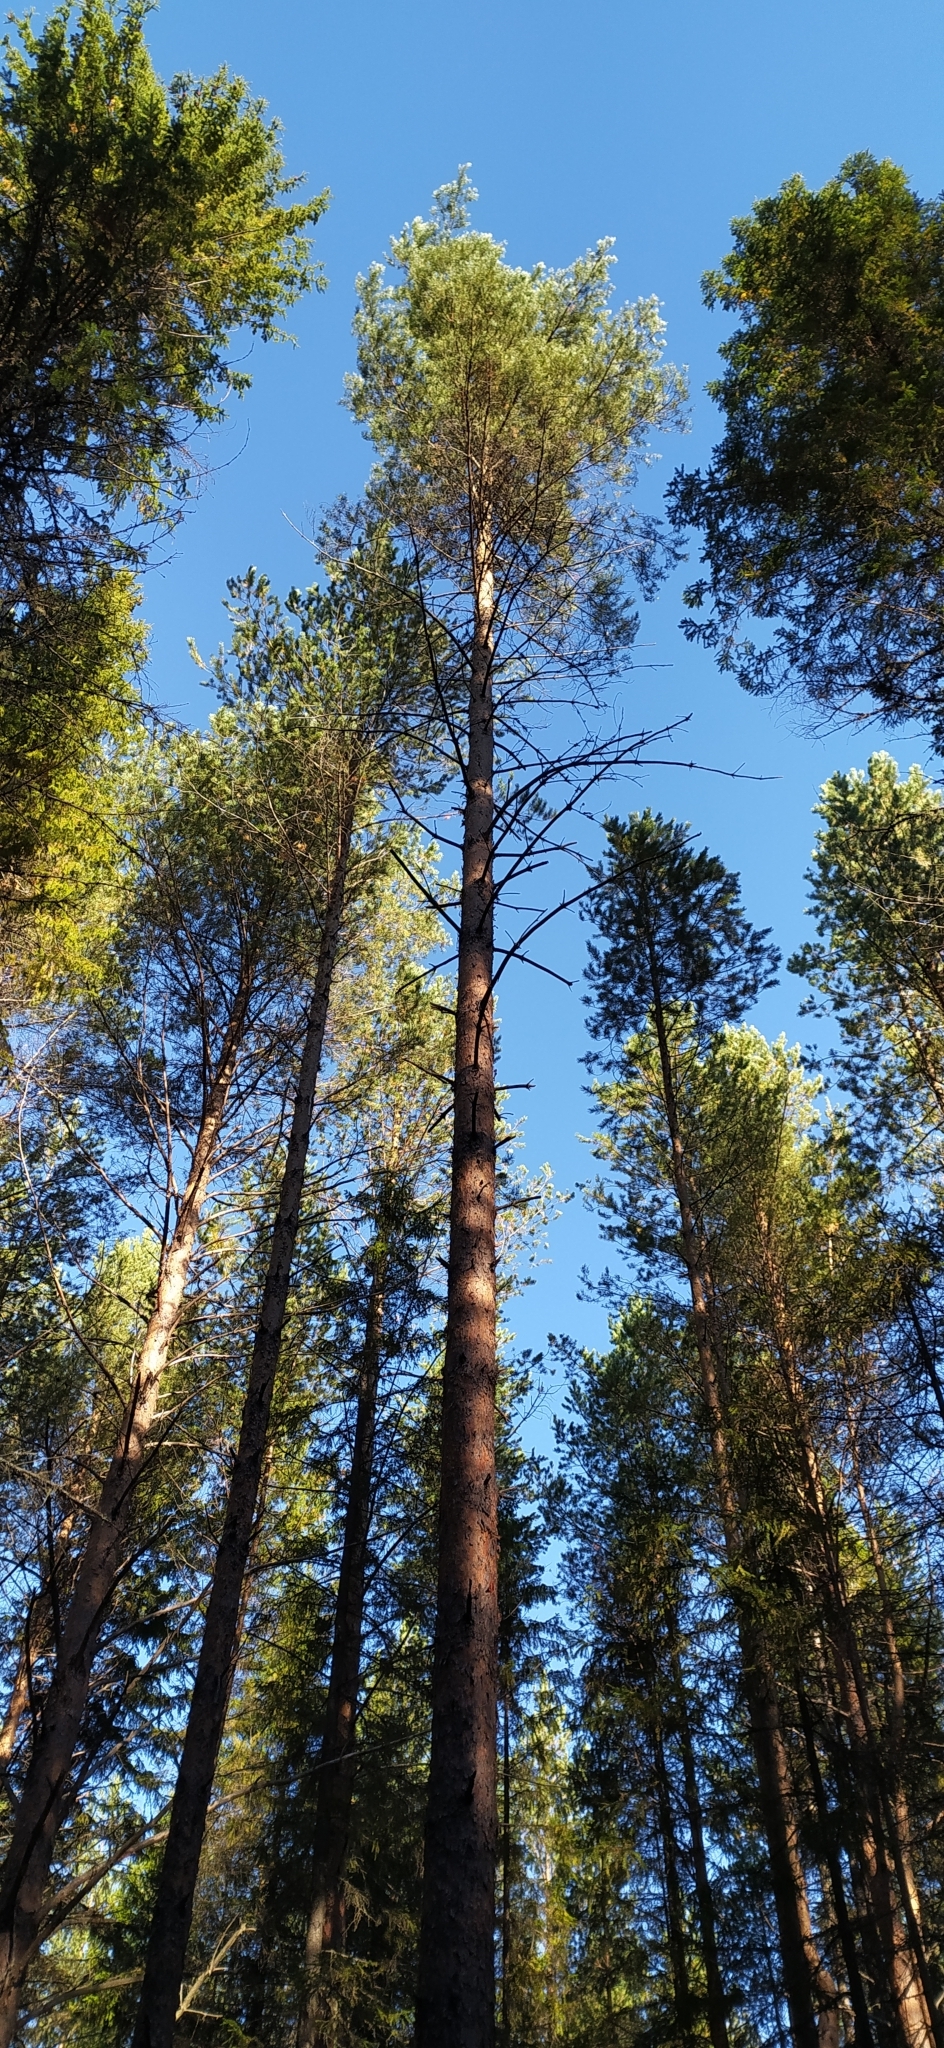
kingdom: Plantae
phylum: Tracheophyta
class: Pinopsida
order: Pinales
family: Pinaceae
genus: Pinus
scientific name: Pinus sylvestris
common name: Scots pine
